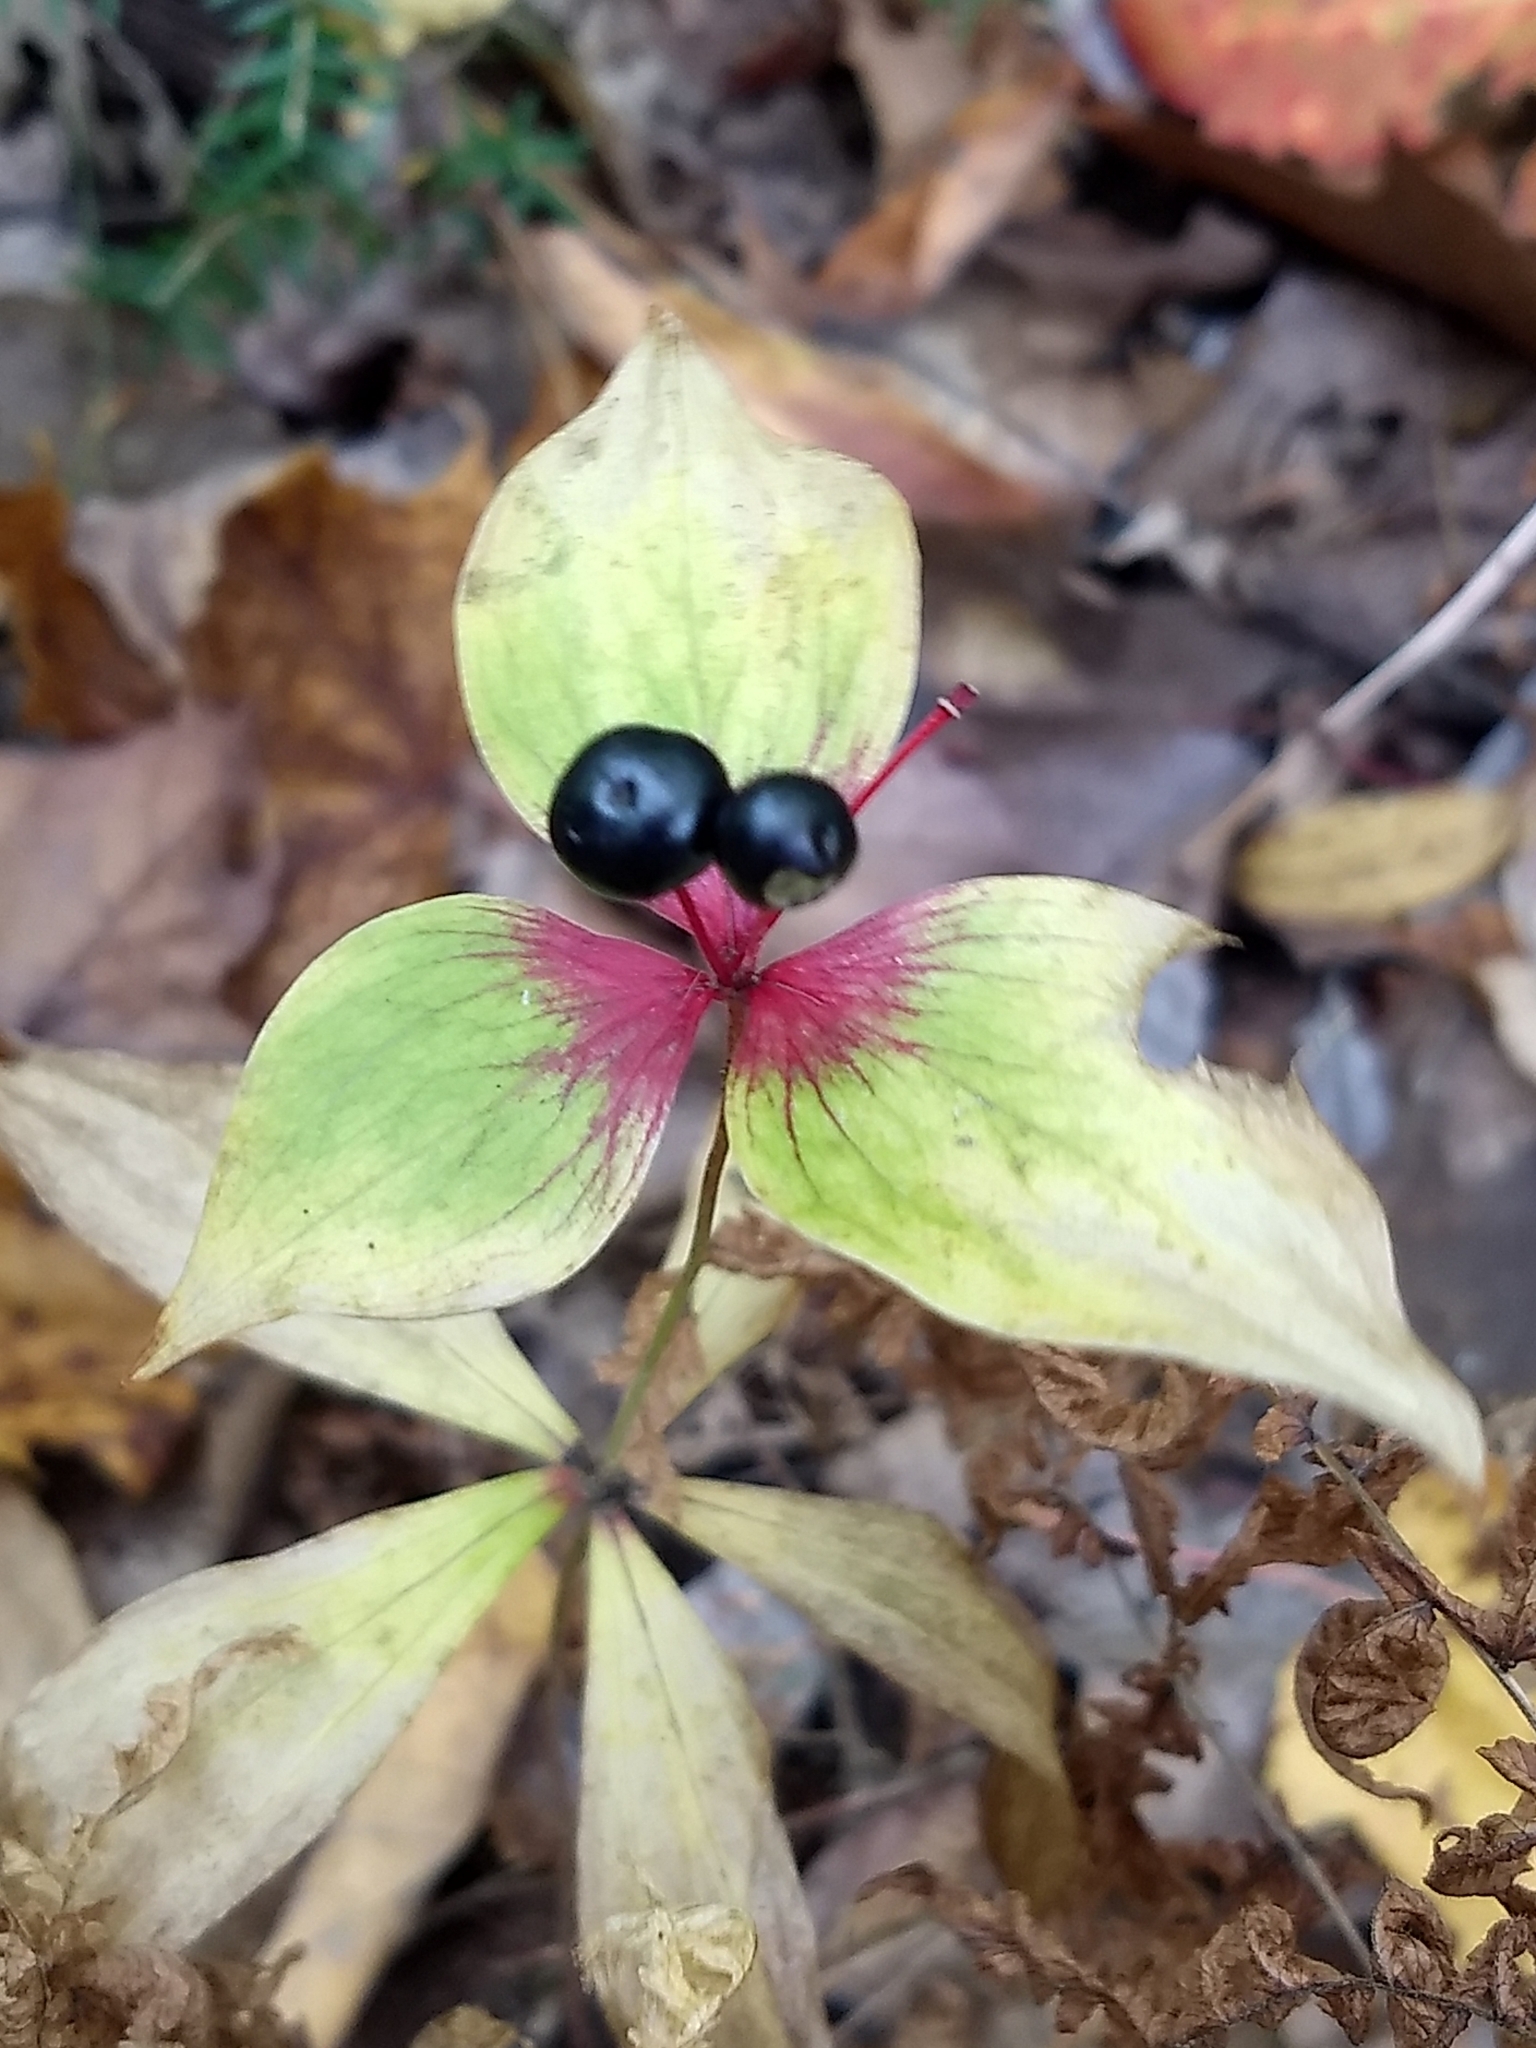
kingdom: Plantae
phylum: Tracheophyta
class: Liliopsida
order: Liliales
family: Liliaceae
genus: Medeola
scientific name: Medeola virginiana
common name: Indian cucumber-root
